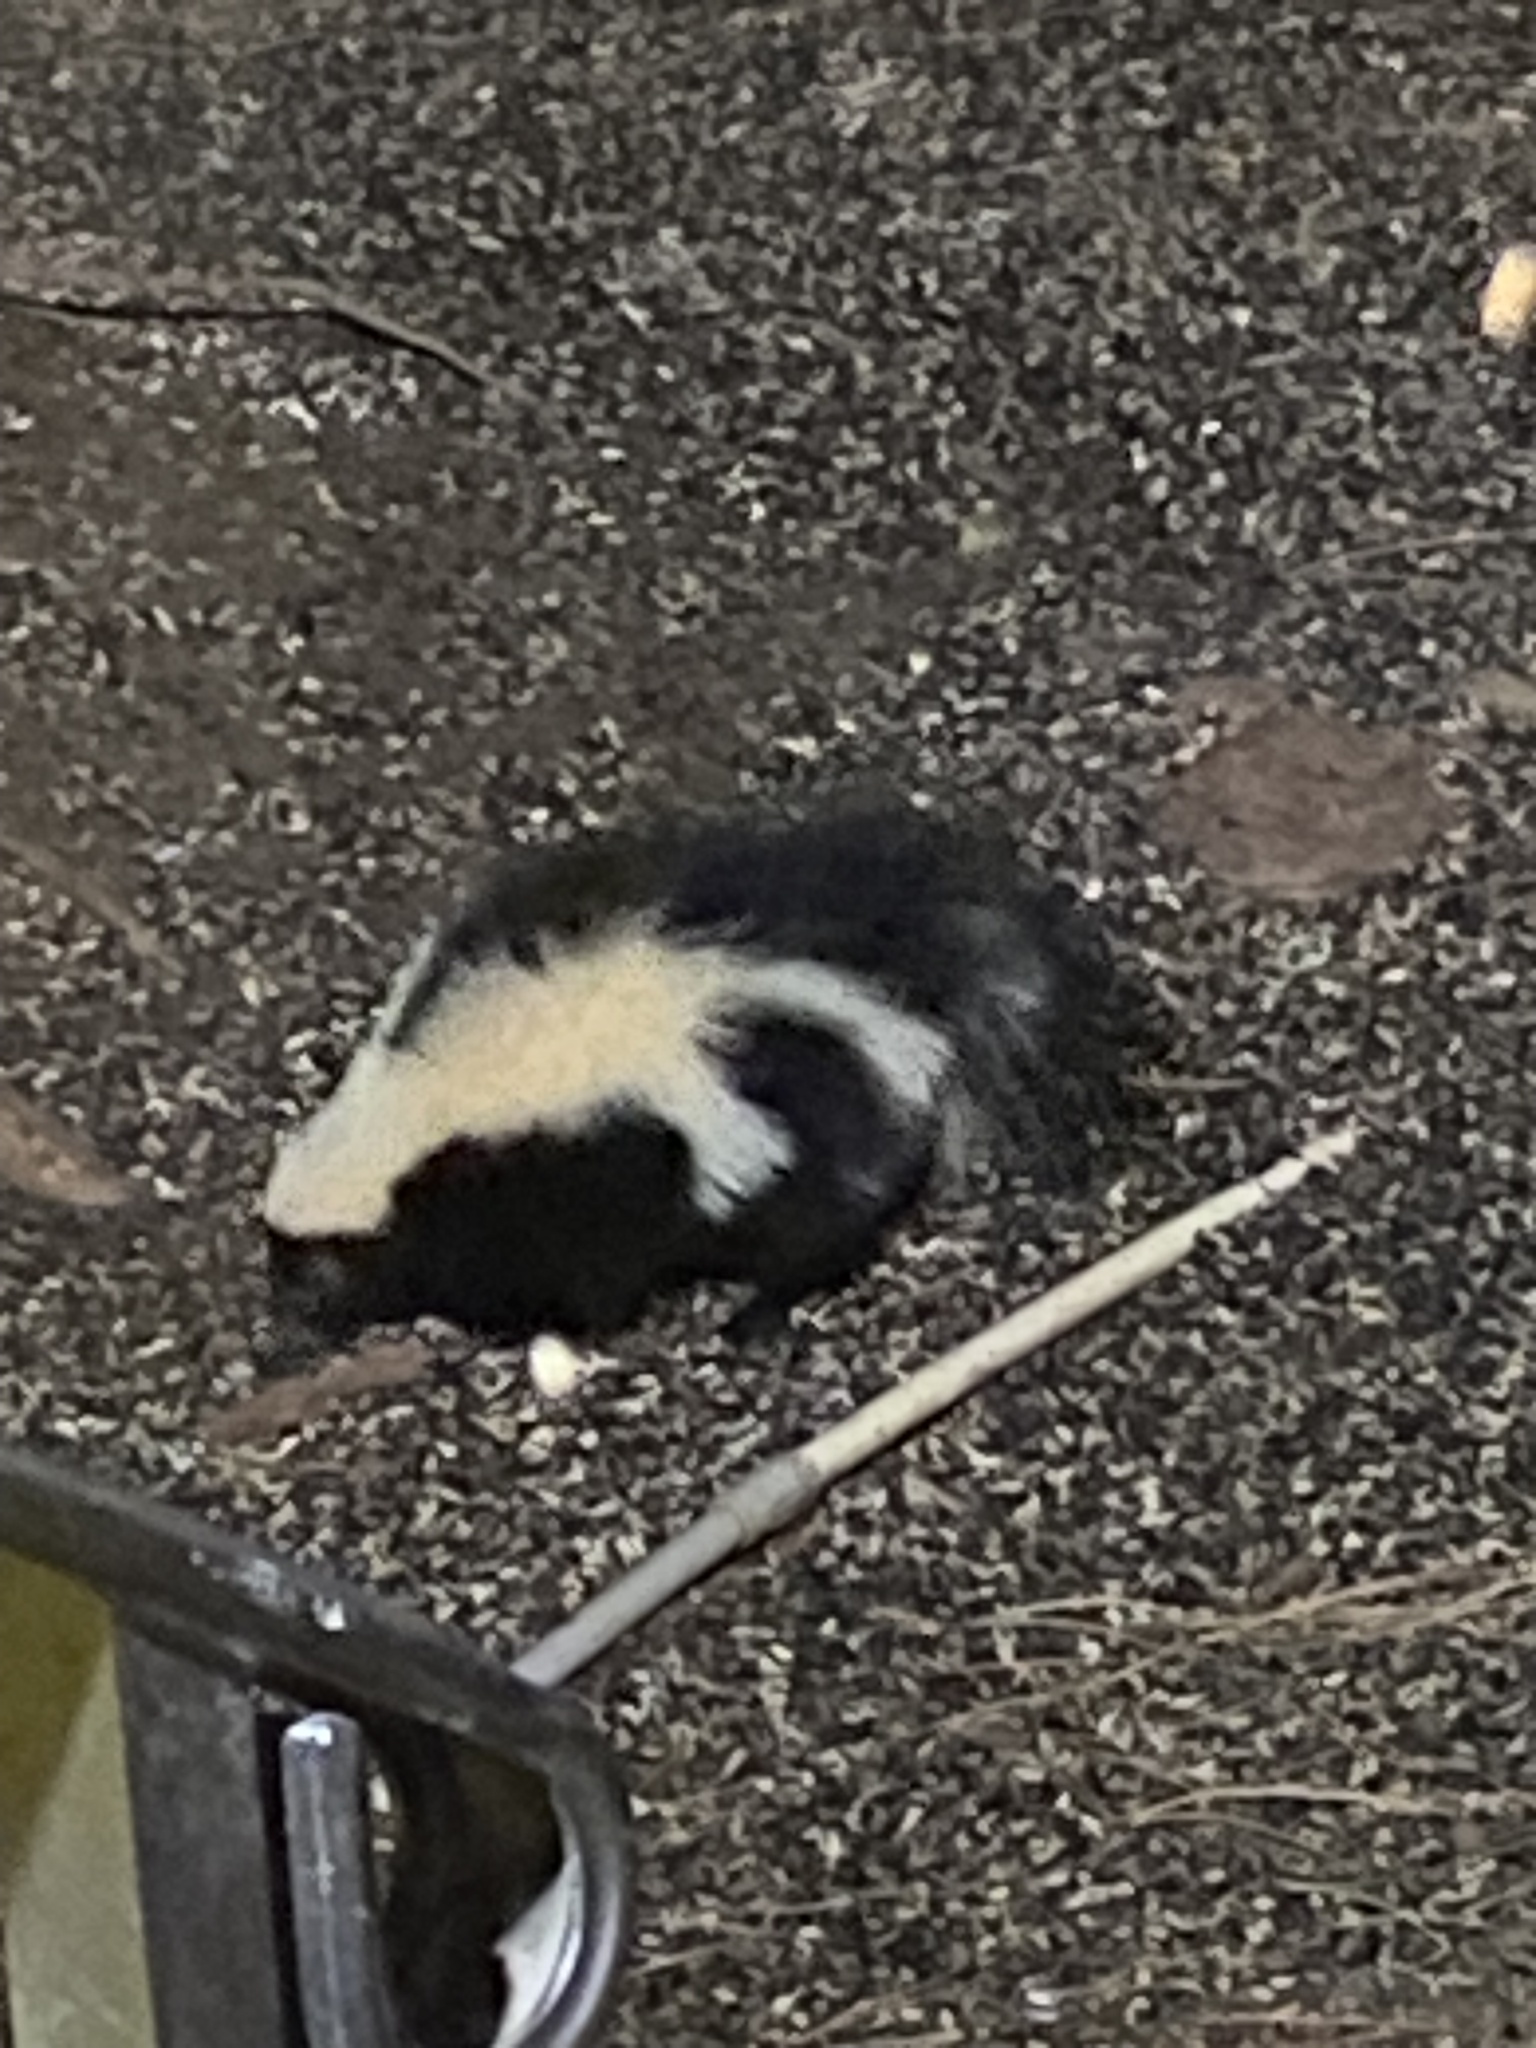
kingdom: Animalia
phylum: Chordata
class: Mammalia
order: Carnivora
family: Mephitidae
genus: Mephitis
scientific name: Mephitis mephitis
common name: Striped skunk
